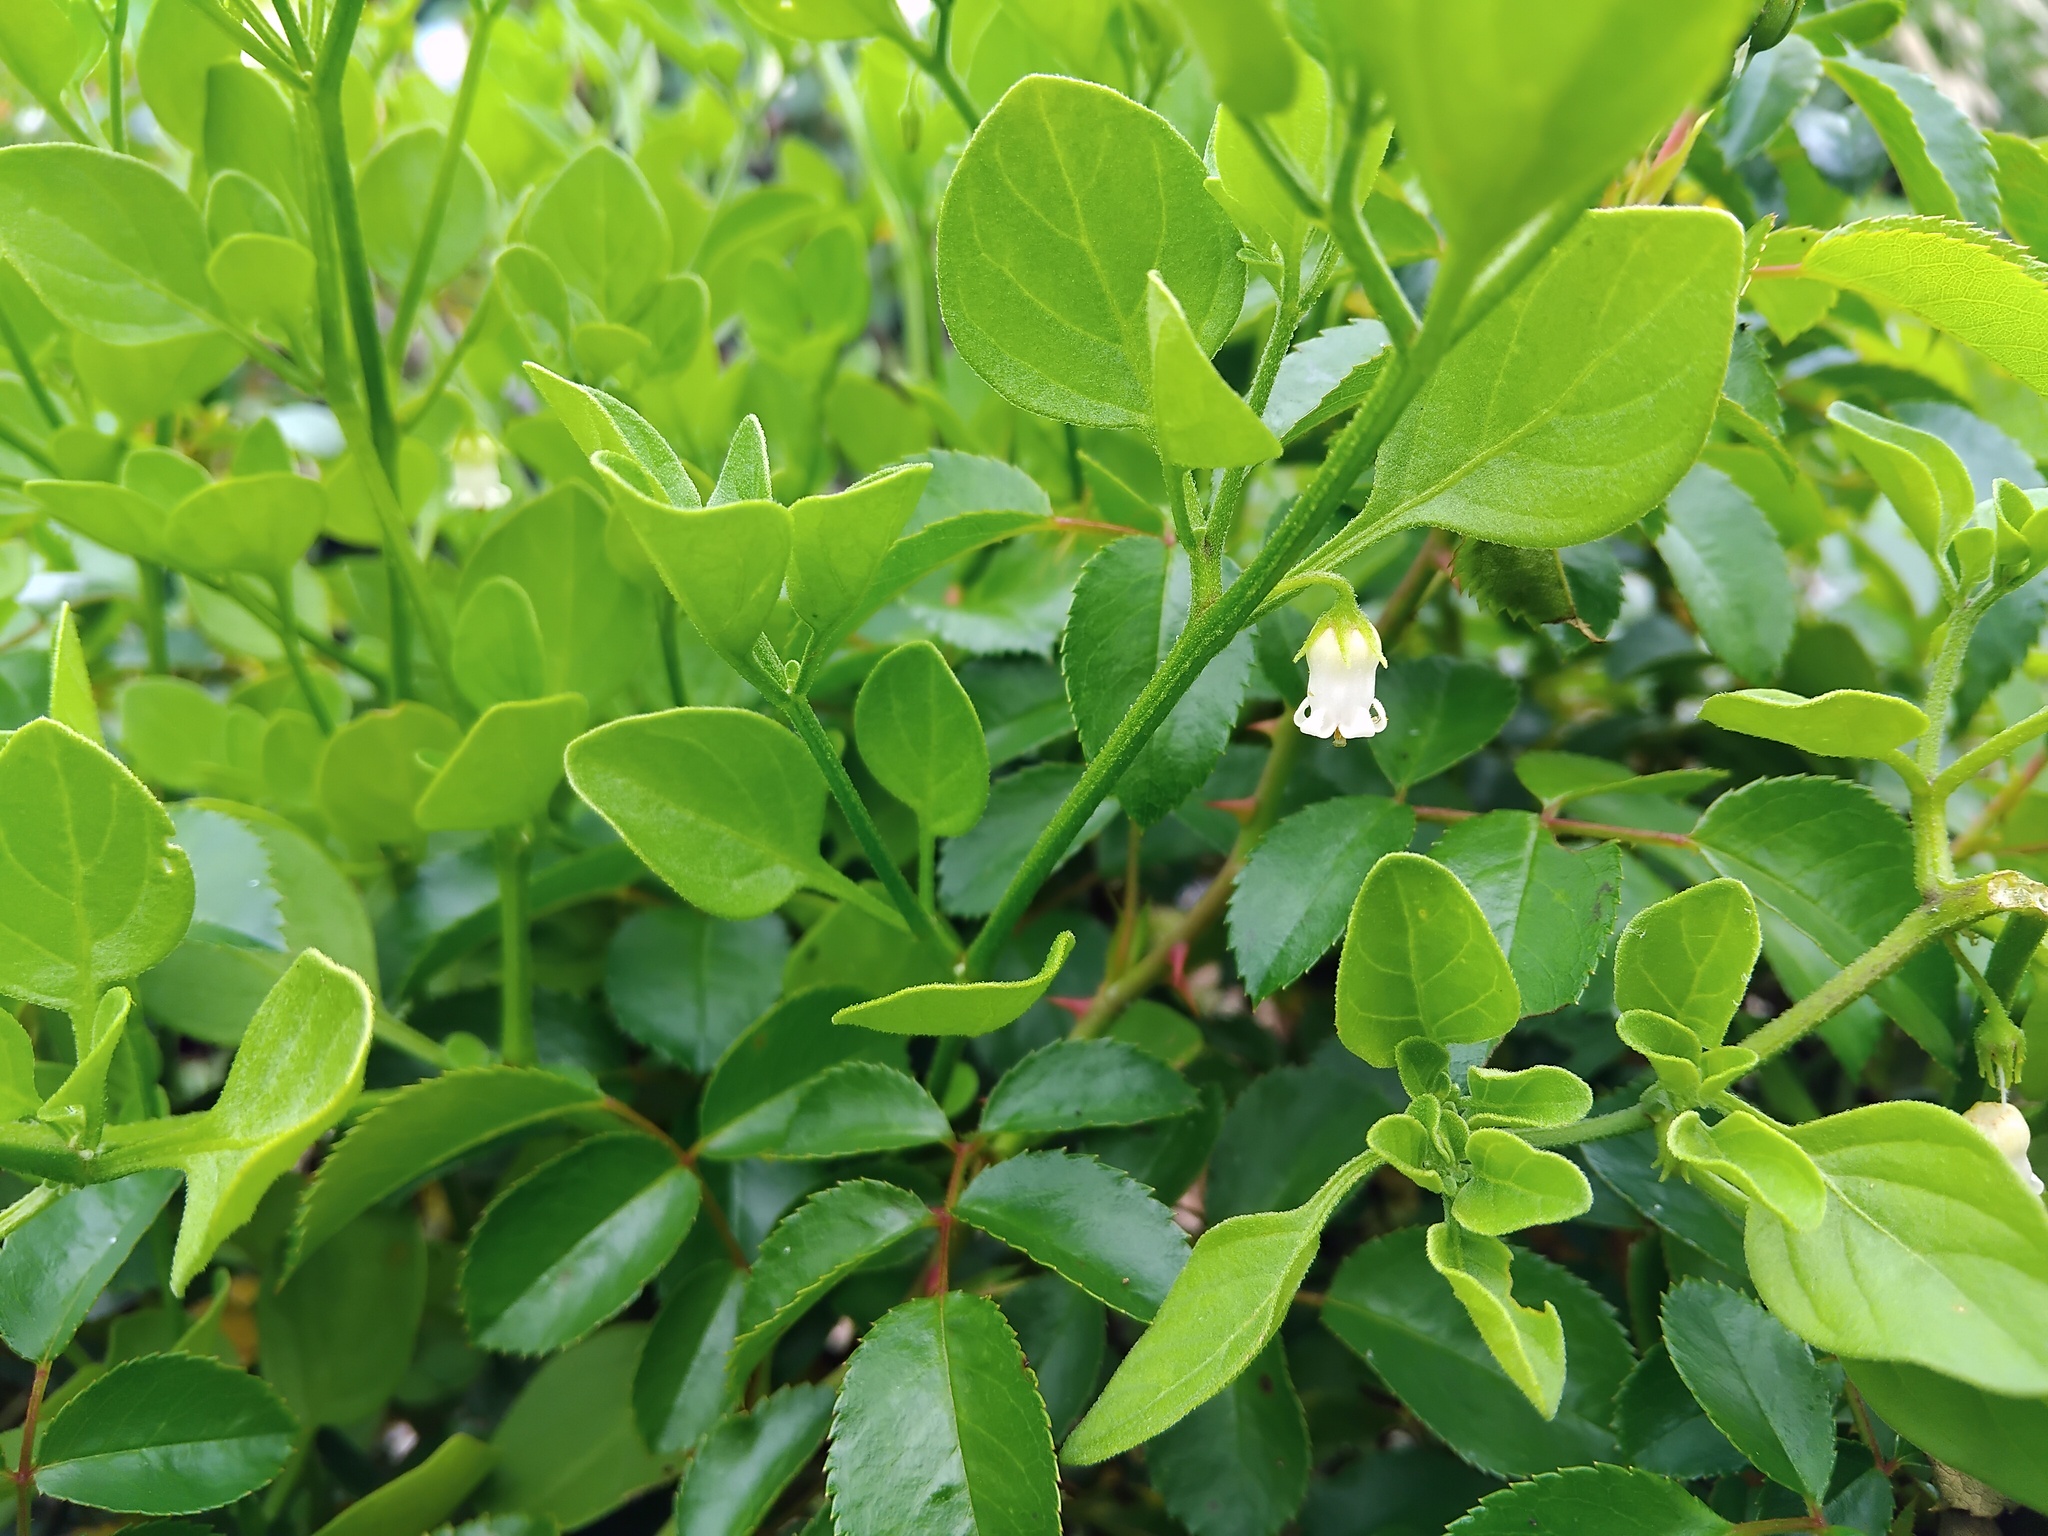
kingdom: Plantae
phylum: Tracheophyta
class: Magnoliopsida
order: Solanales
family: Solanaceae
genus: Salpichroa
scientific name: Salpichroa origanifolia
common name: Lily-of-the-valley-vine
